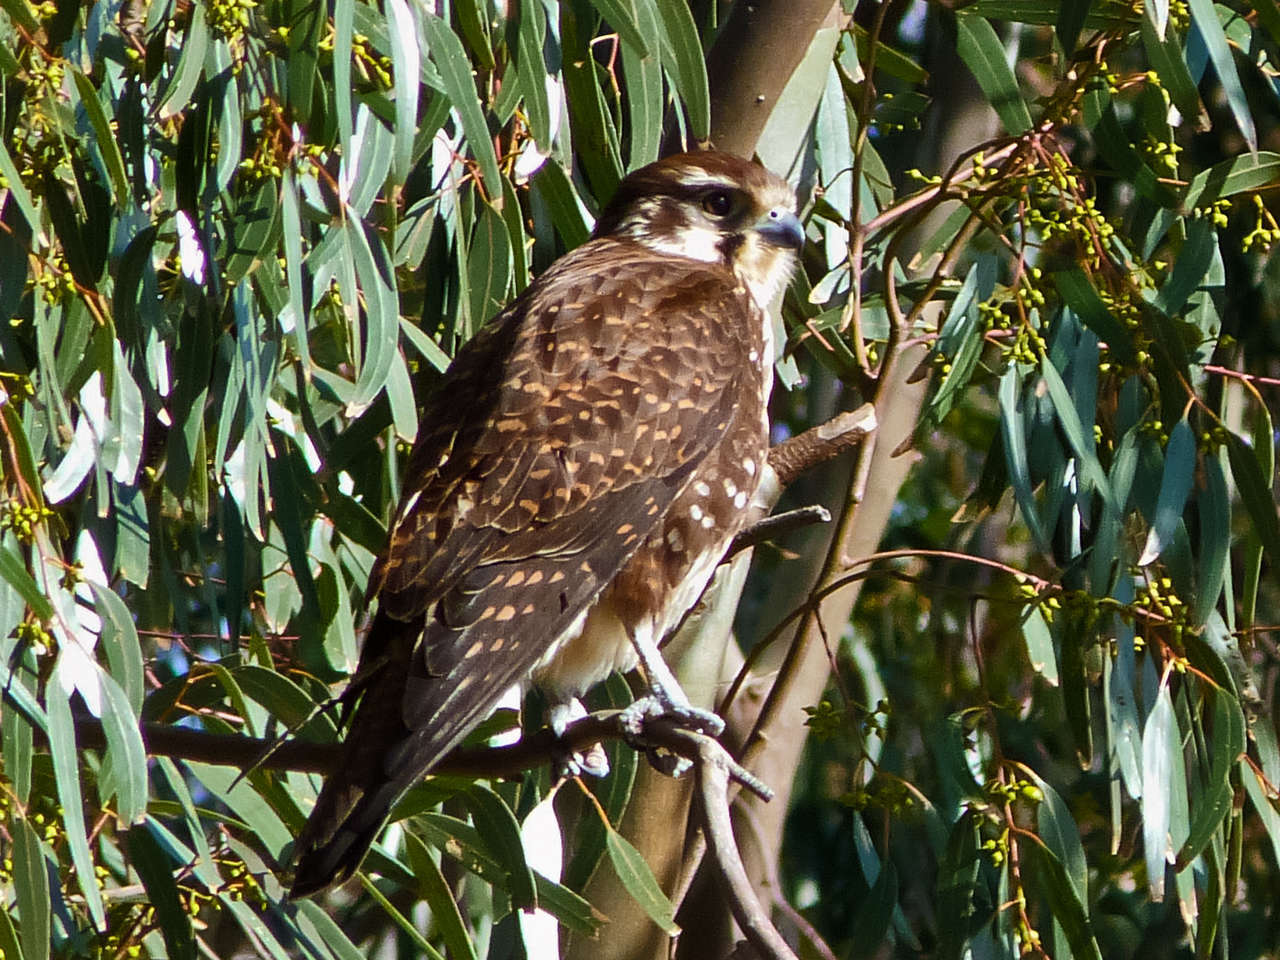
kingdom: Animalia
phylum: Chordata
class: Aves
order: Falconiformes
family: Falconidae
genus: Falco
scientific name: Falco berigora
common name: Brown falcon
